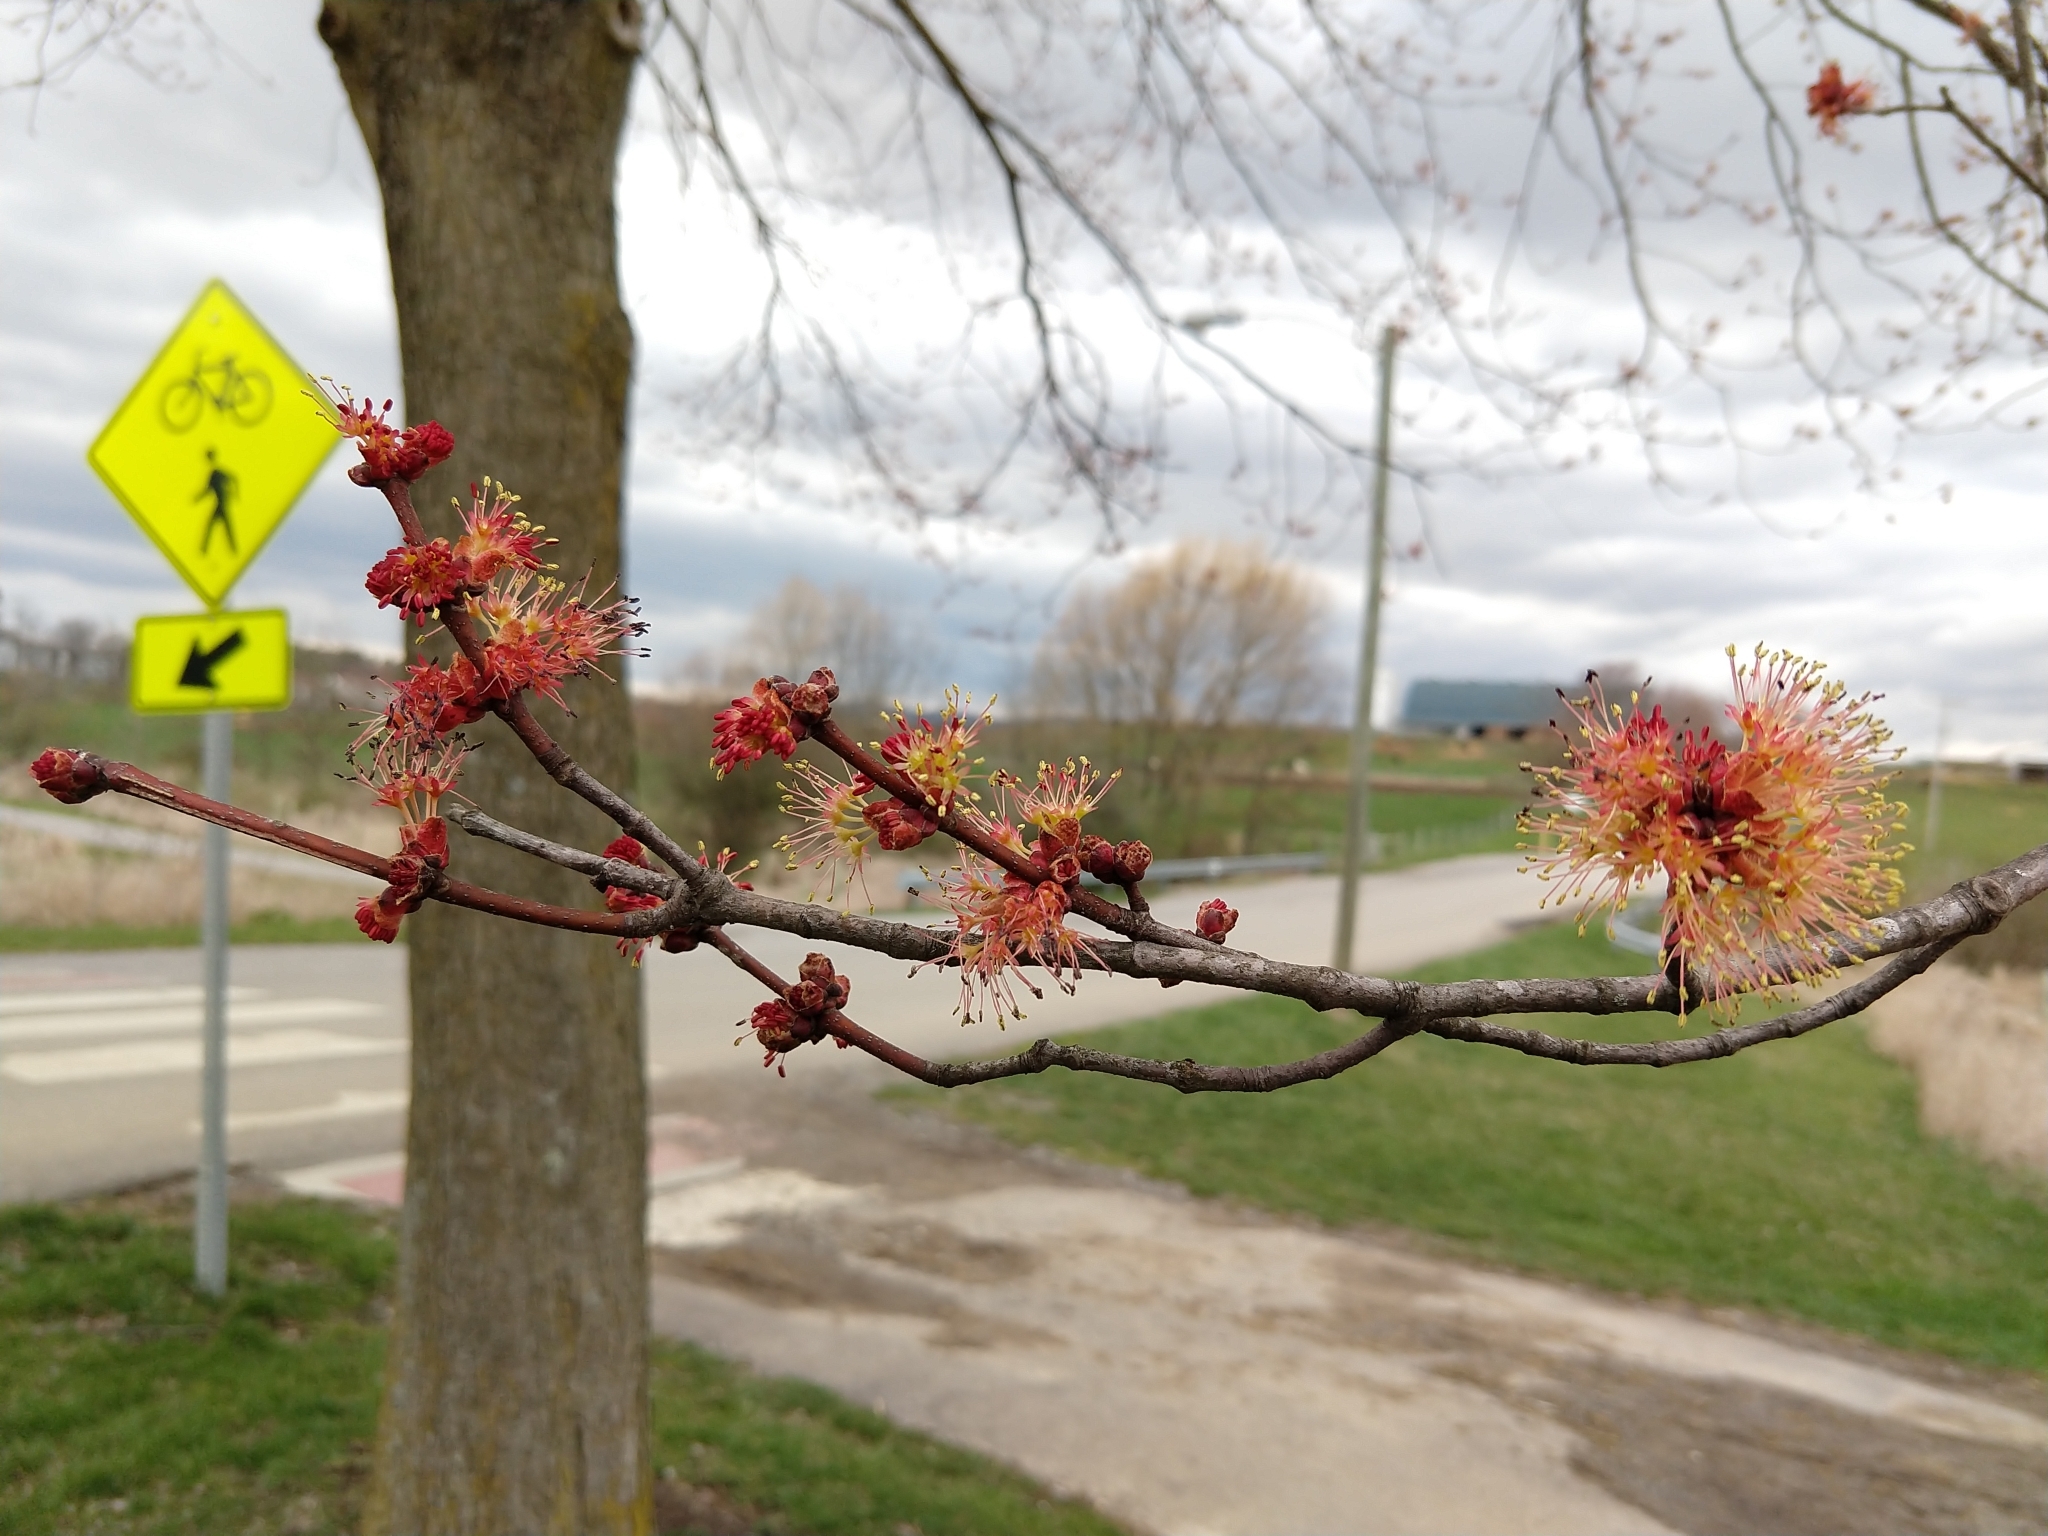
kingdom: Plantae
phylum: Tracheophyta
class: Magnoliopsida
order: Sapindales
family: Sapindaceae
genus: Acer
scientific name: Acer rubrum
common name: Red maple
